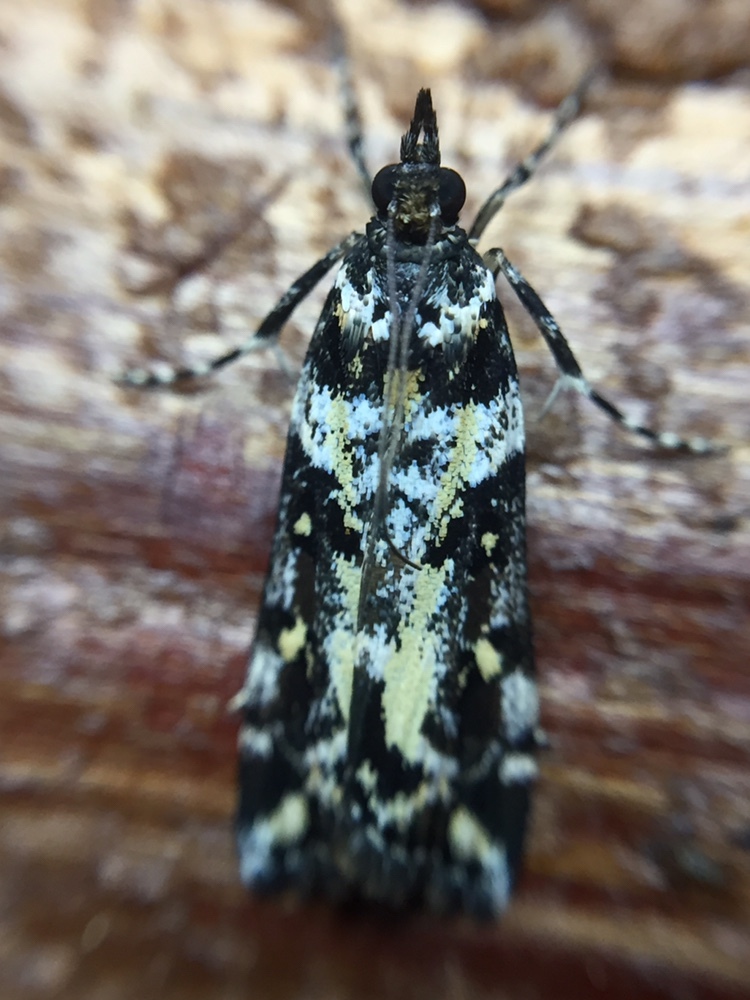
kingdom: Animalia
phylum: Arthropoda
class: Insecta
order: Lepidoptera
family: Crambidae
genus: Eudonia
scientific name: Eudonia diphtheralis
